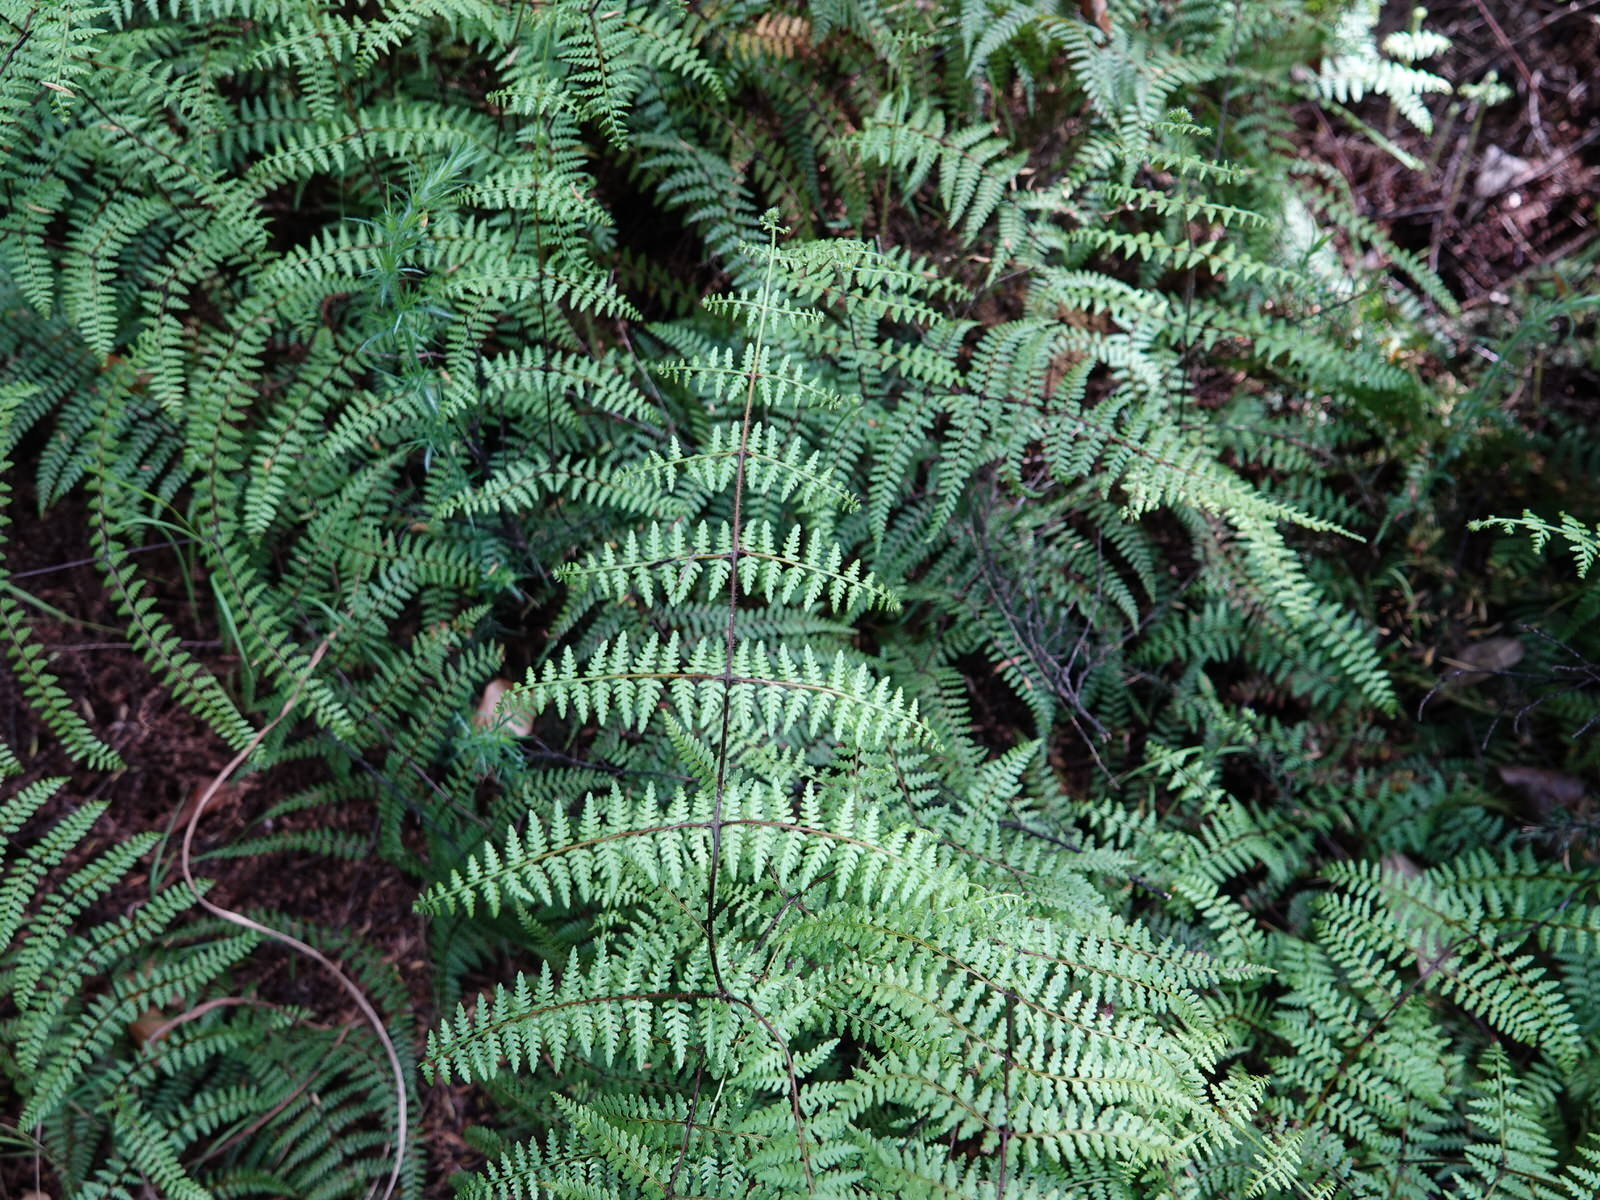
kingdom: Plantae
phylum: Tracheophyta
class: Polypodiopsida
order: Polypodiales
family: Dennstaedtiaceae
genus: Hiya
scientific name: Hiya distans
